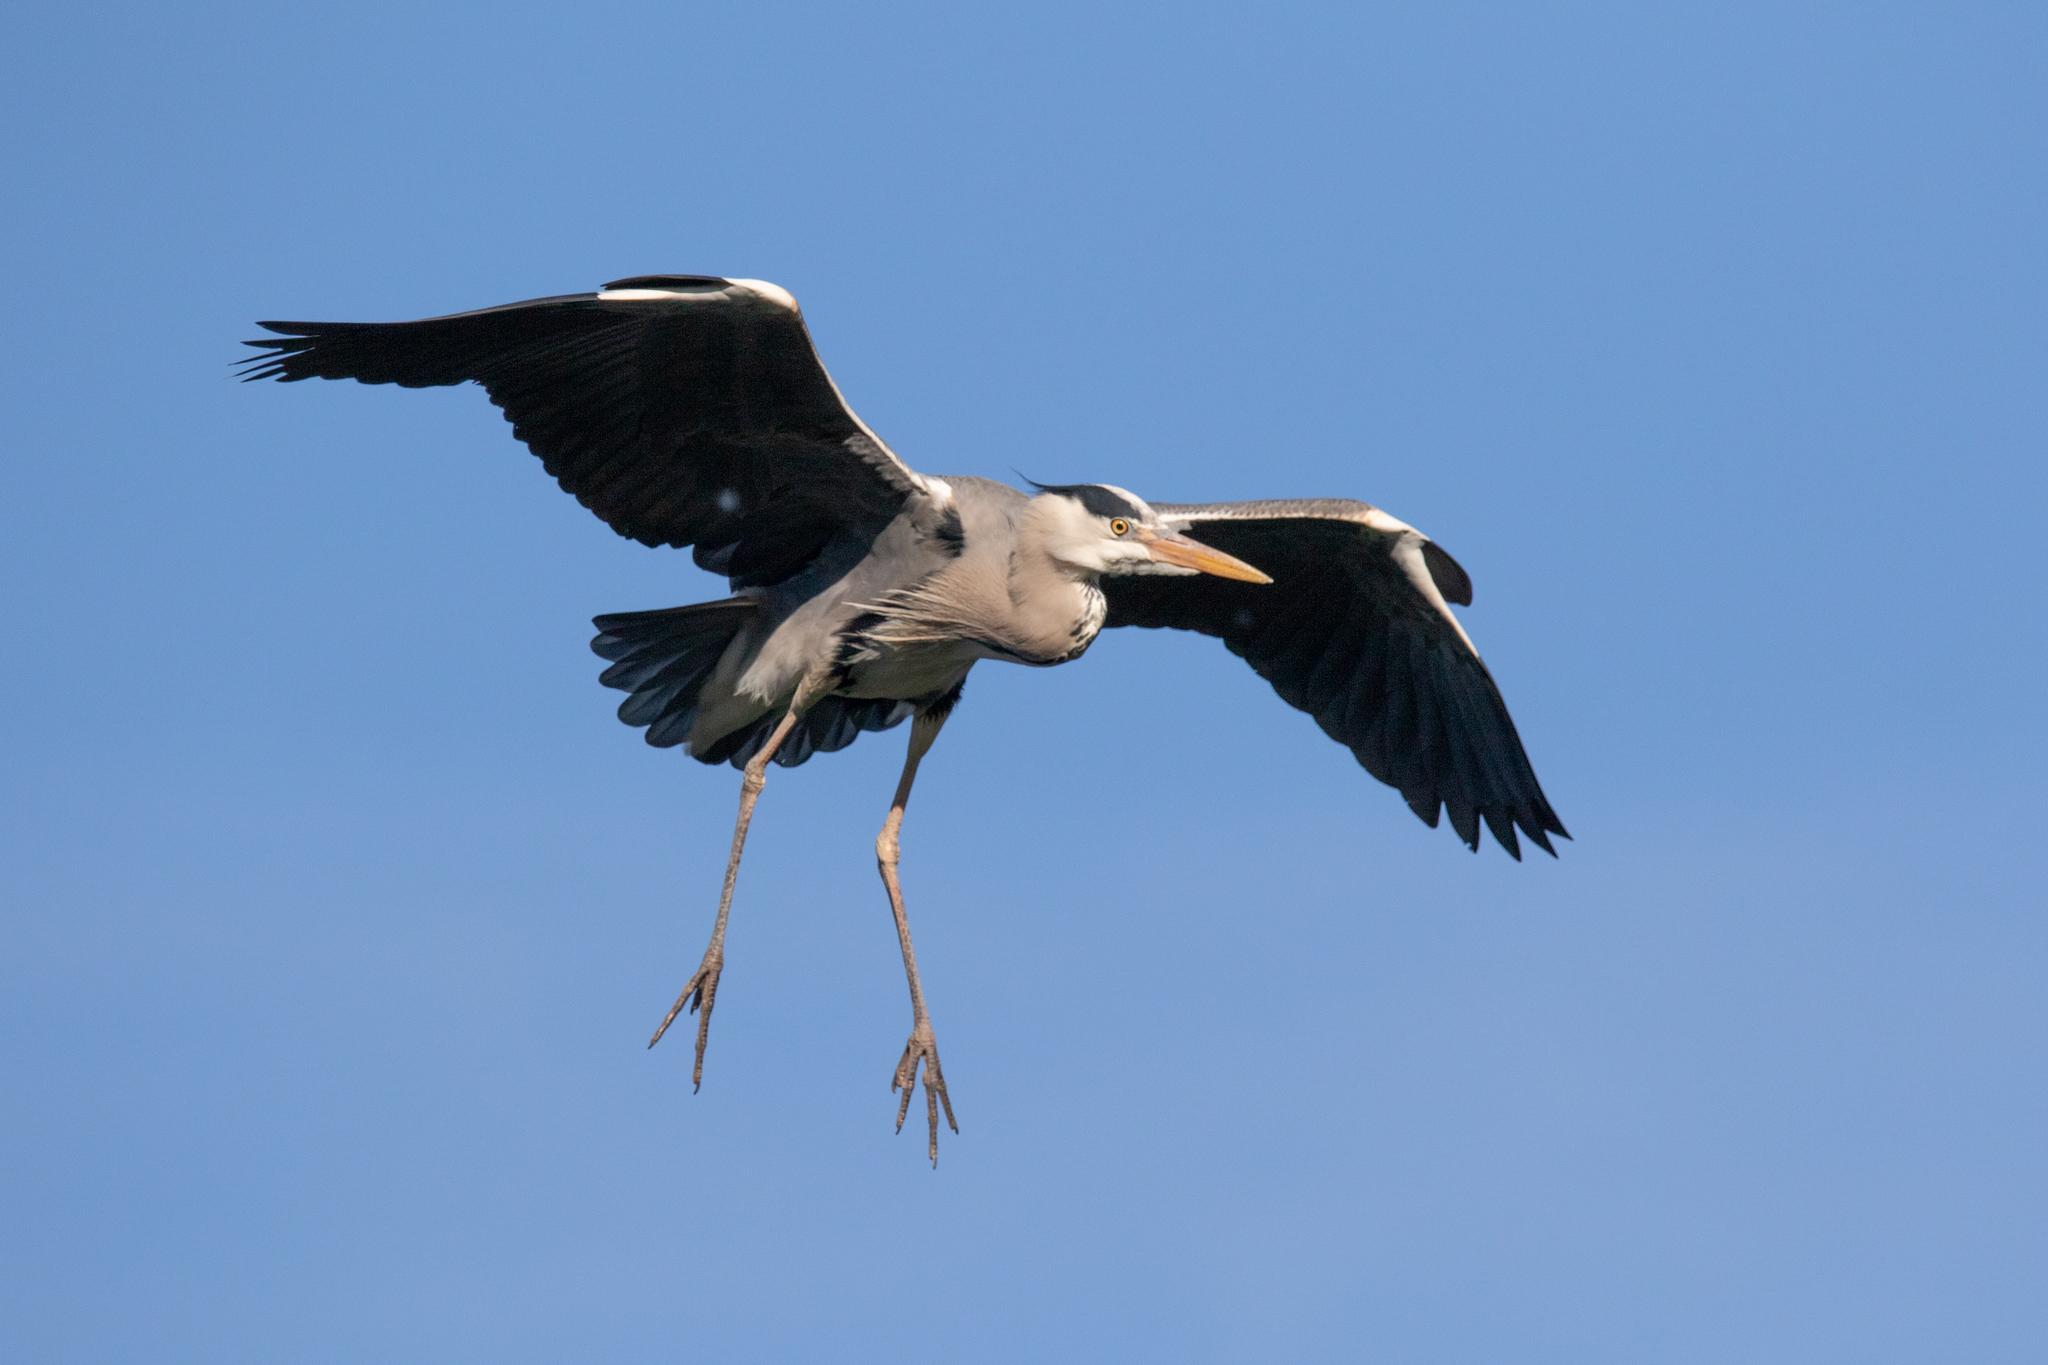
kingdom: Animalia
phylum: Chordata
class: Aves
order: Pelecaniformes
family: Ardeidae
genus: Ardea
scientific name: Ardea cinerea
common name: Grey heron
